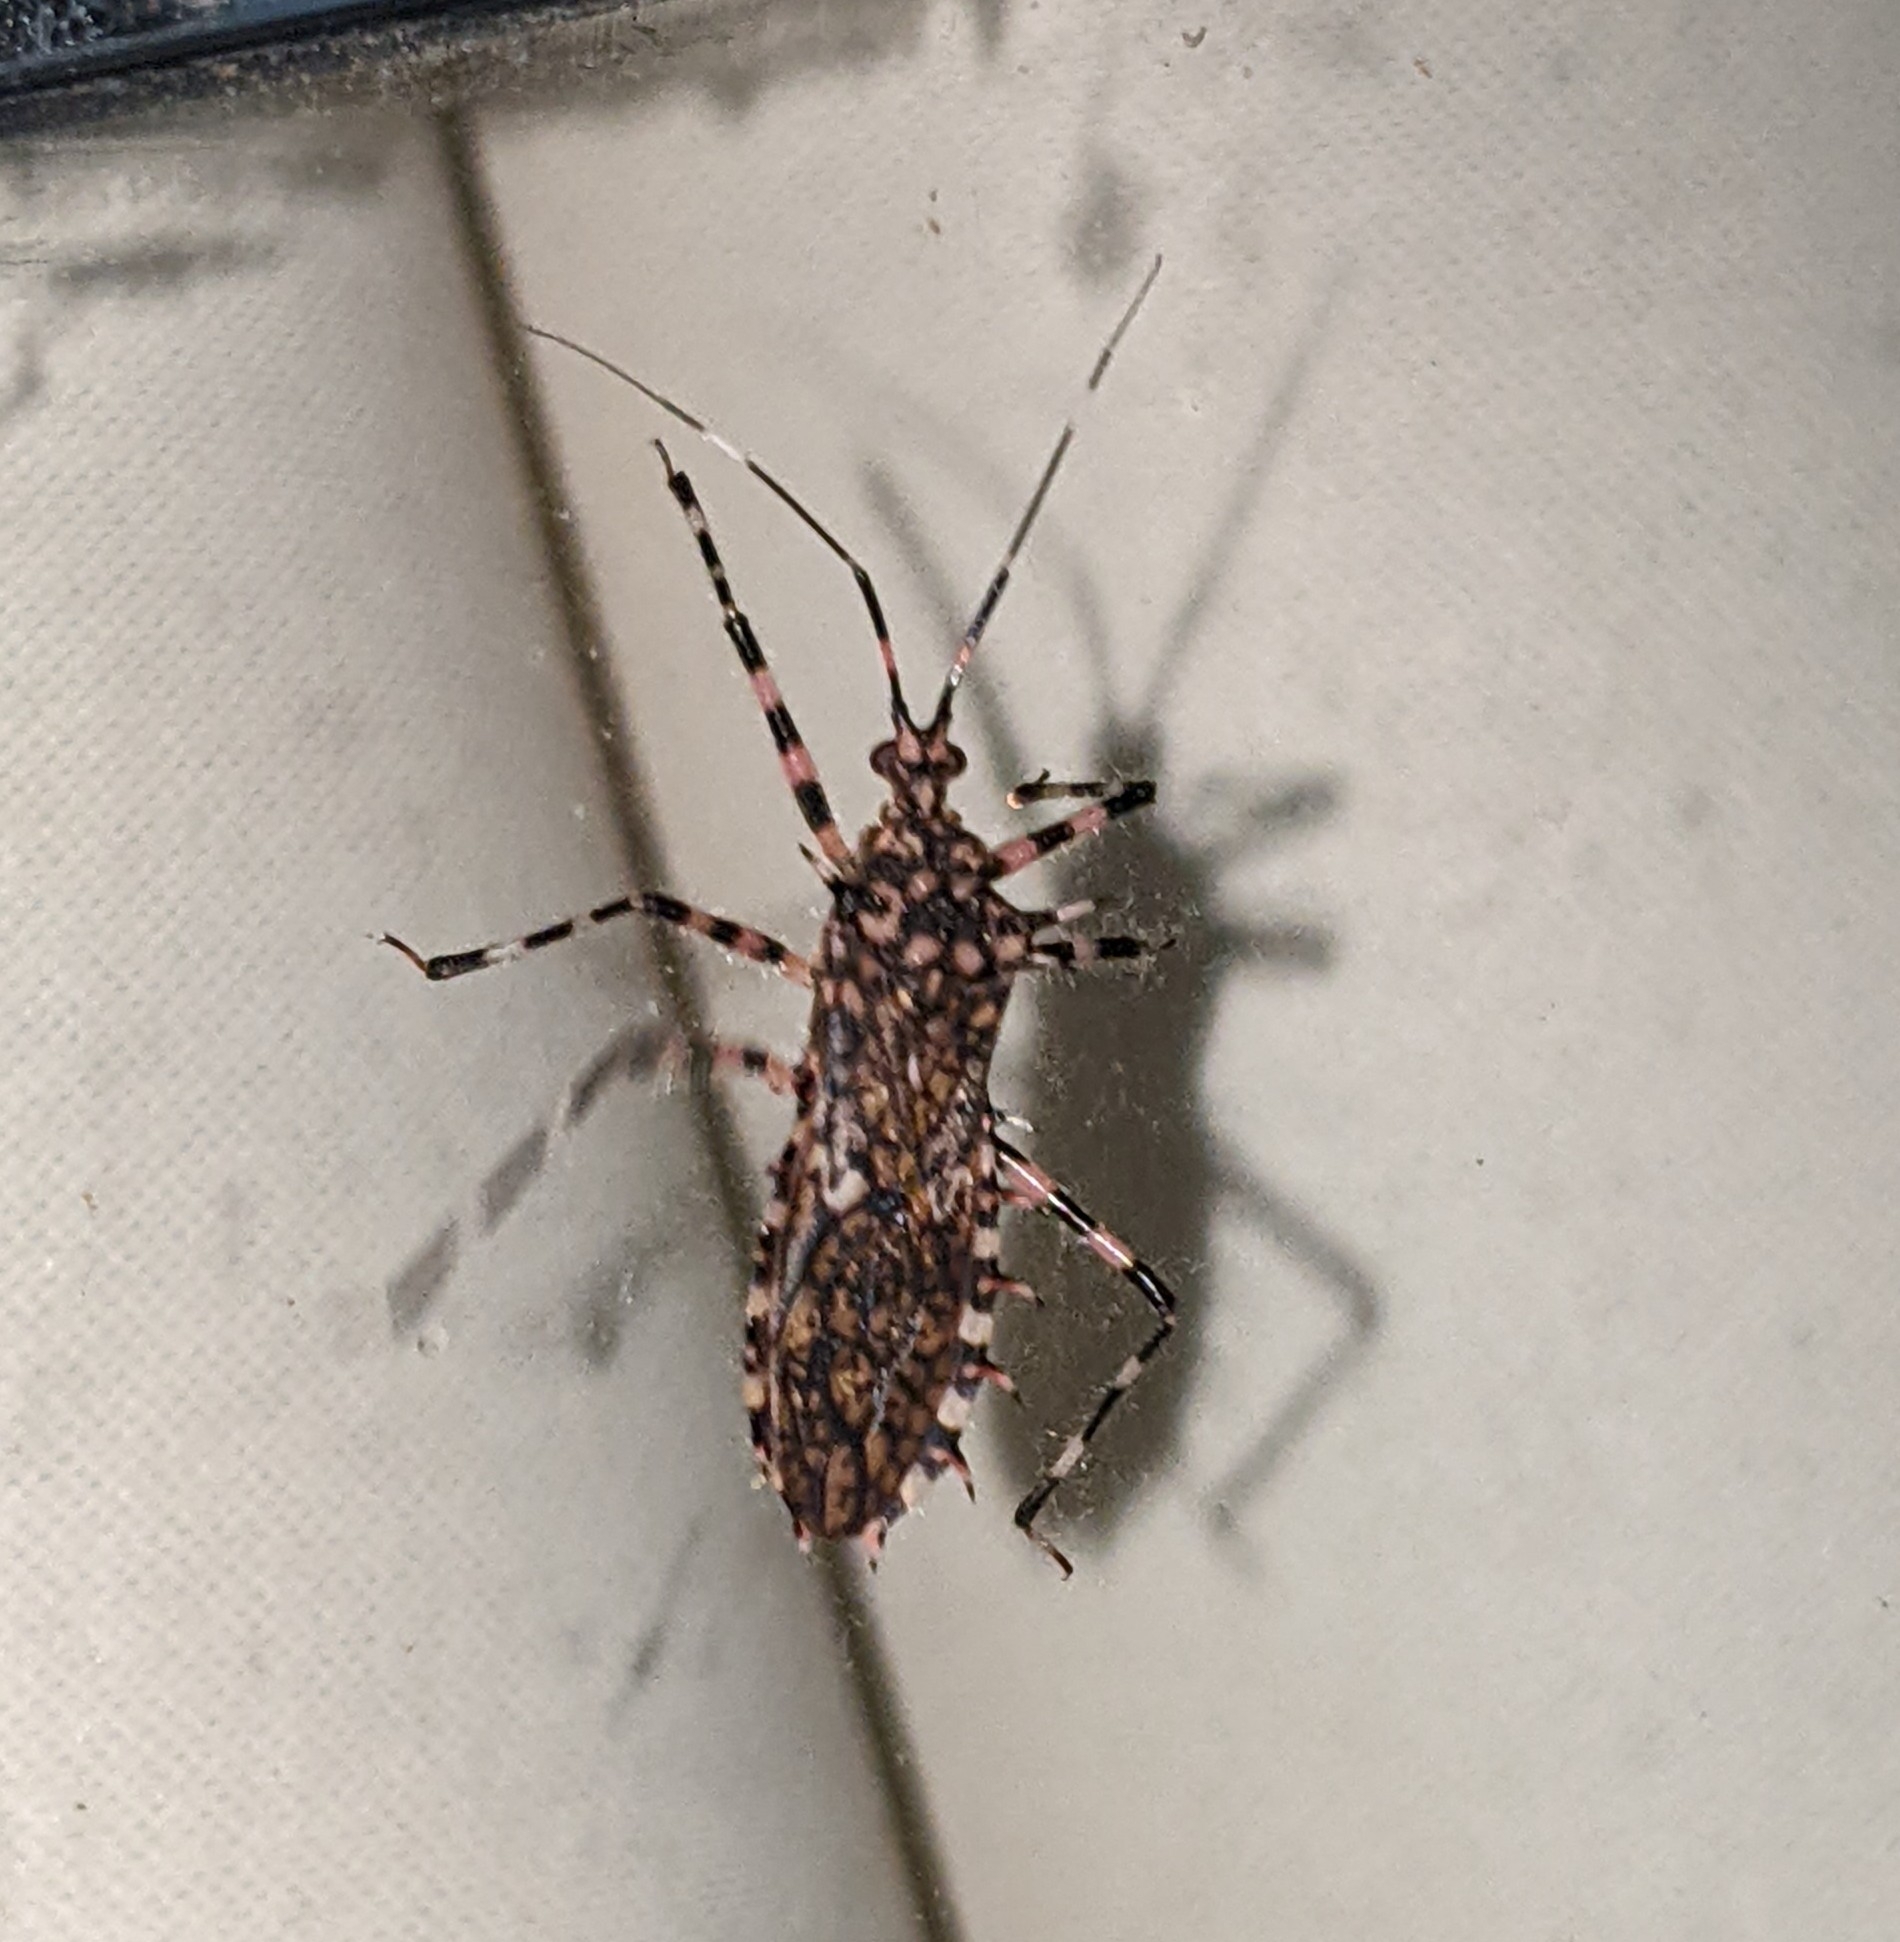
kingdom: Animalia
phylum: Arthropoda
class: Insecta
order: Hemiptera
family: Reduviidae
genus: Salyavata
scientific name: Salyavata variegata
